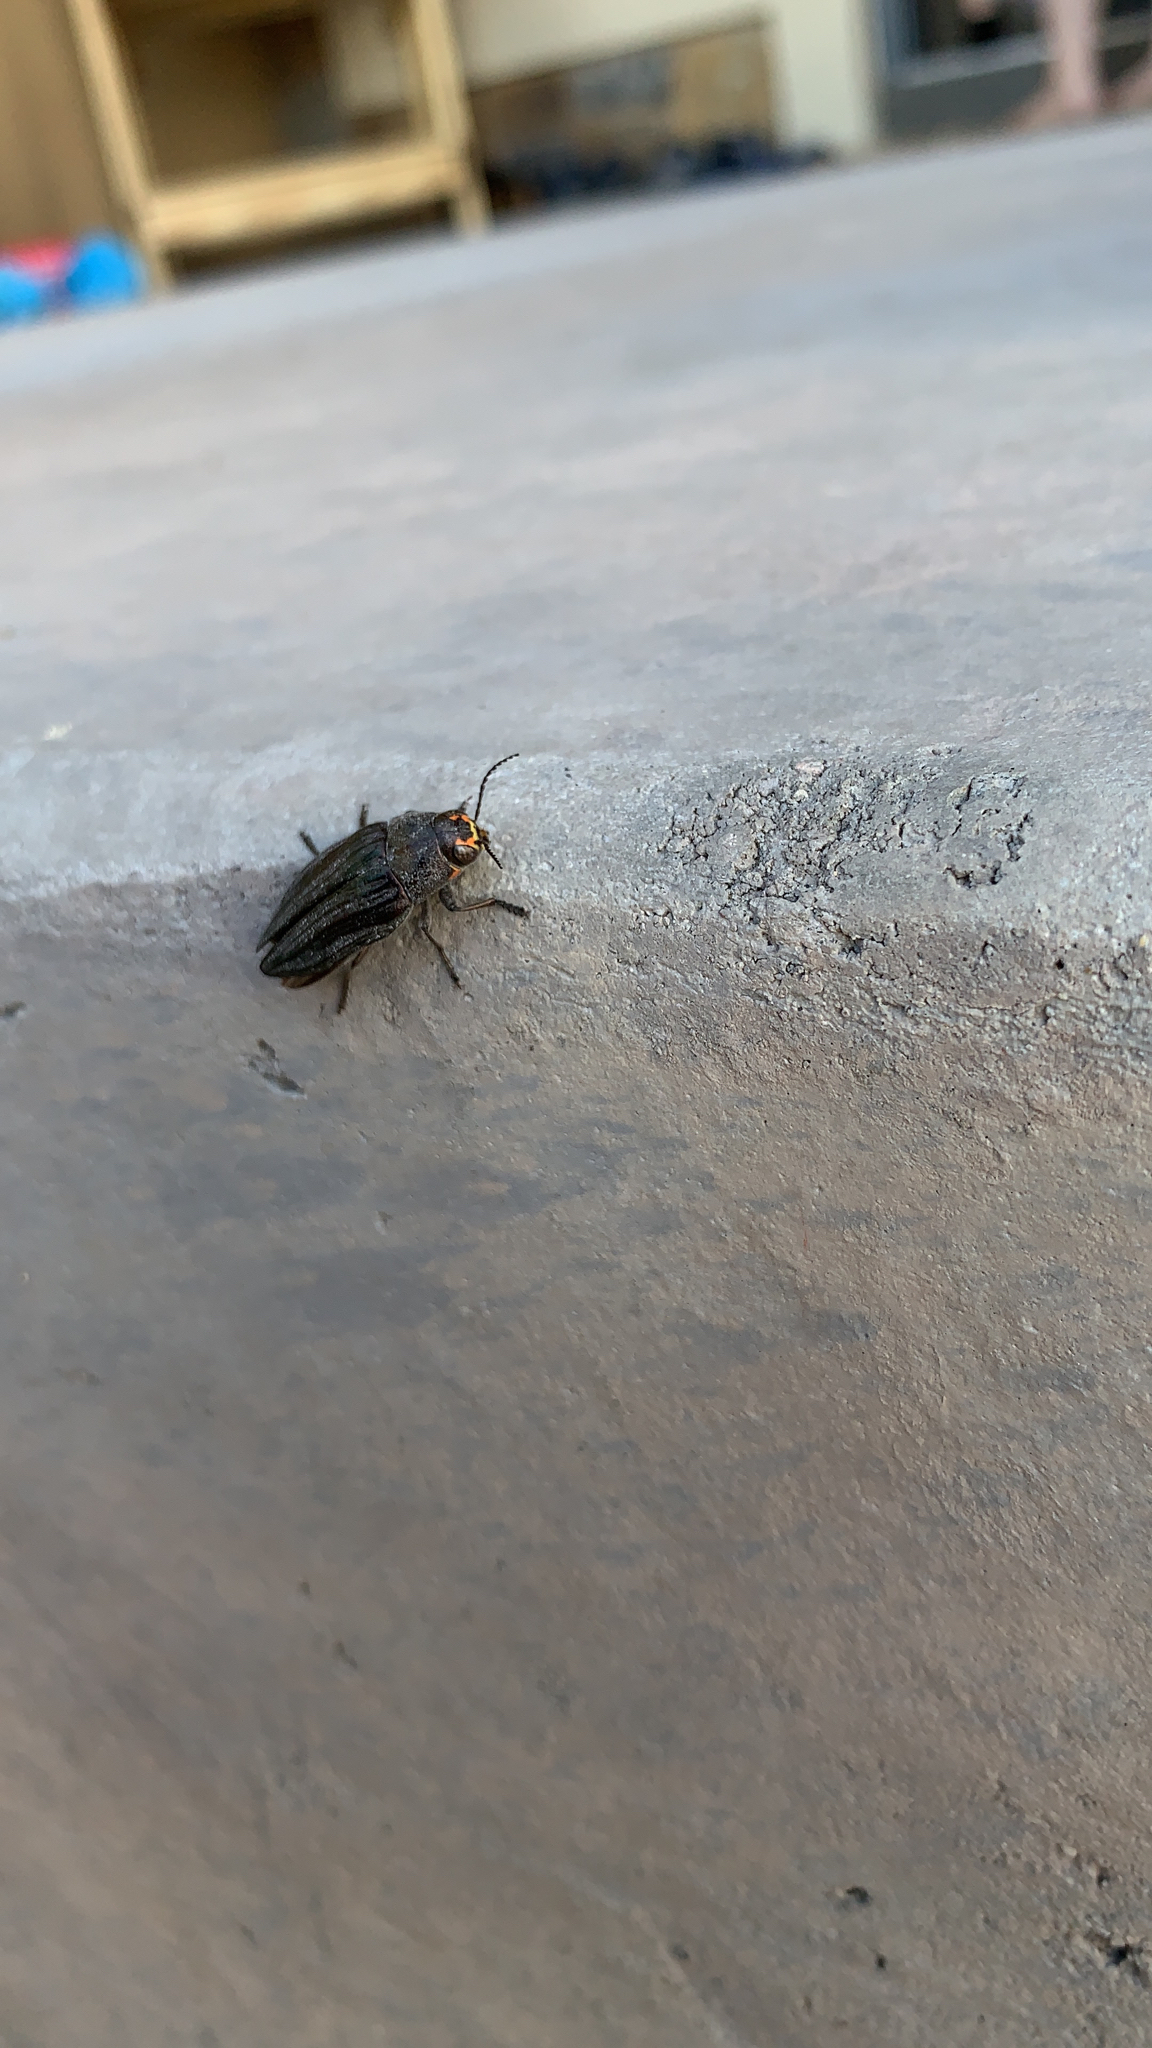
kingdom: Animalia
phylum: Arthropoda
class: Insecta
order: Coleoptera
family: Buprestidae
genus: Buprestis
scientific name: Buprestis lyrata
